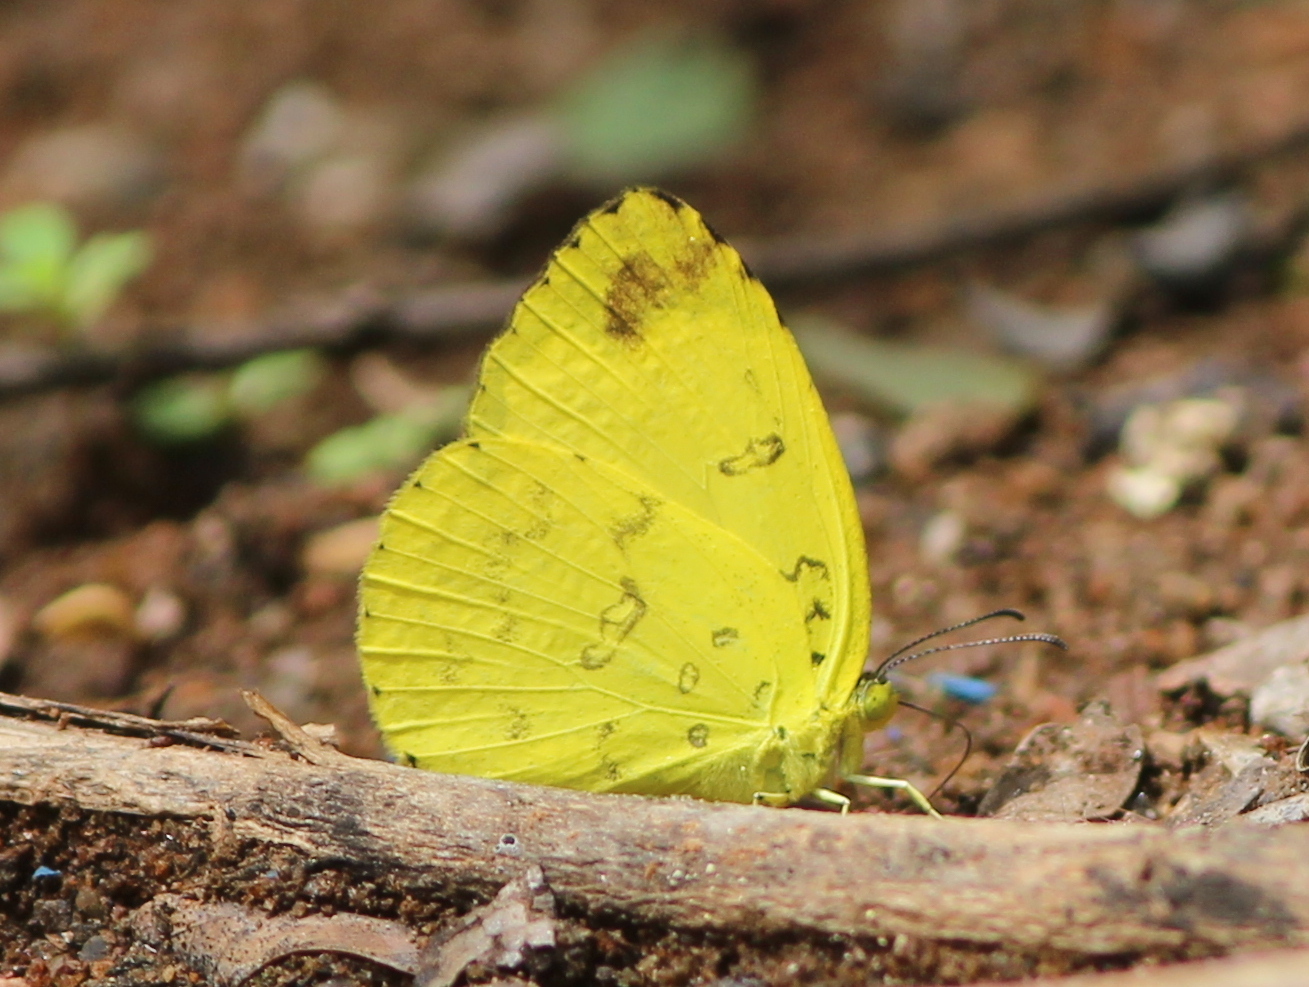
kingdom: Animalia
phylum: Arthropoda
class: Insecta
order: Lepidoptera
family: Pieridae
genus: Eurema
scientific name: Eurema blanda
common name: Three-spot grass yellow
